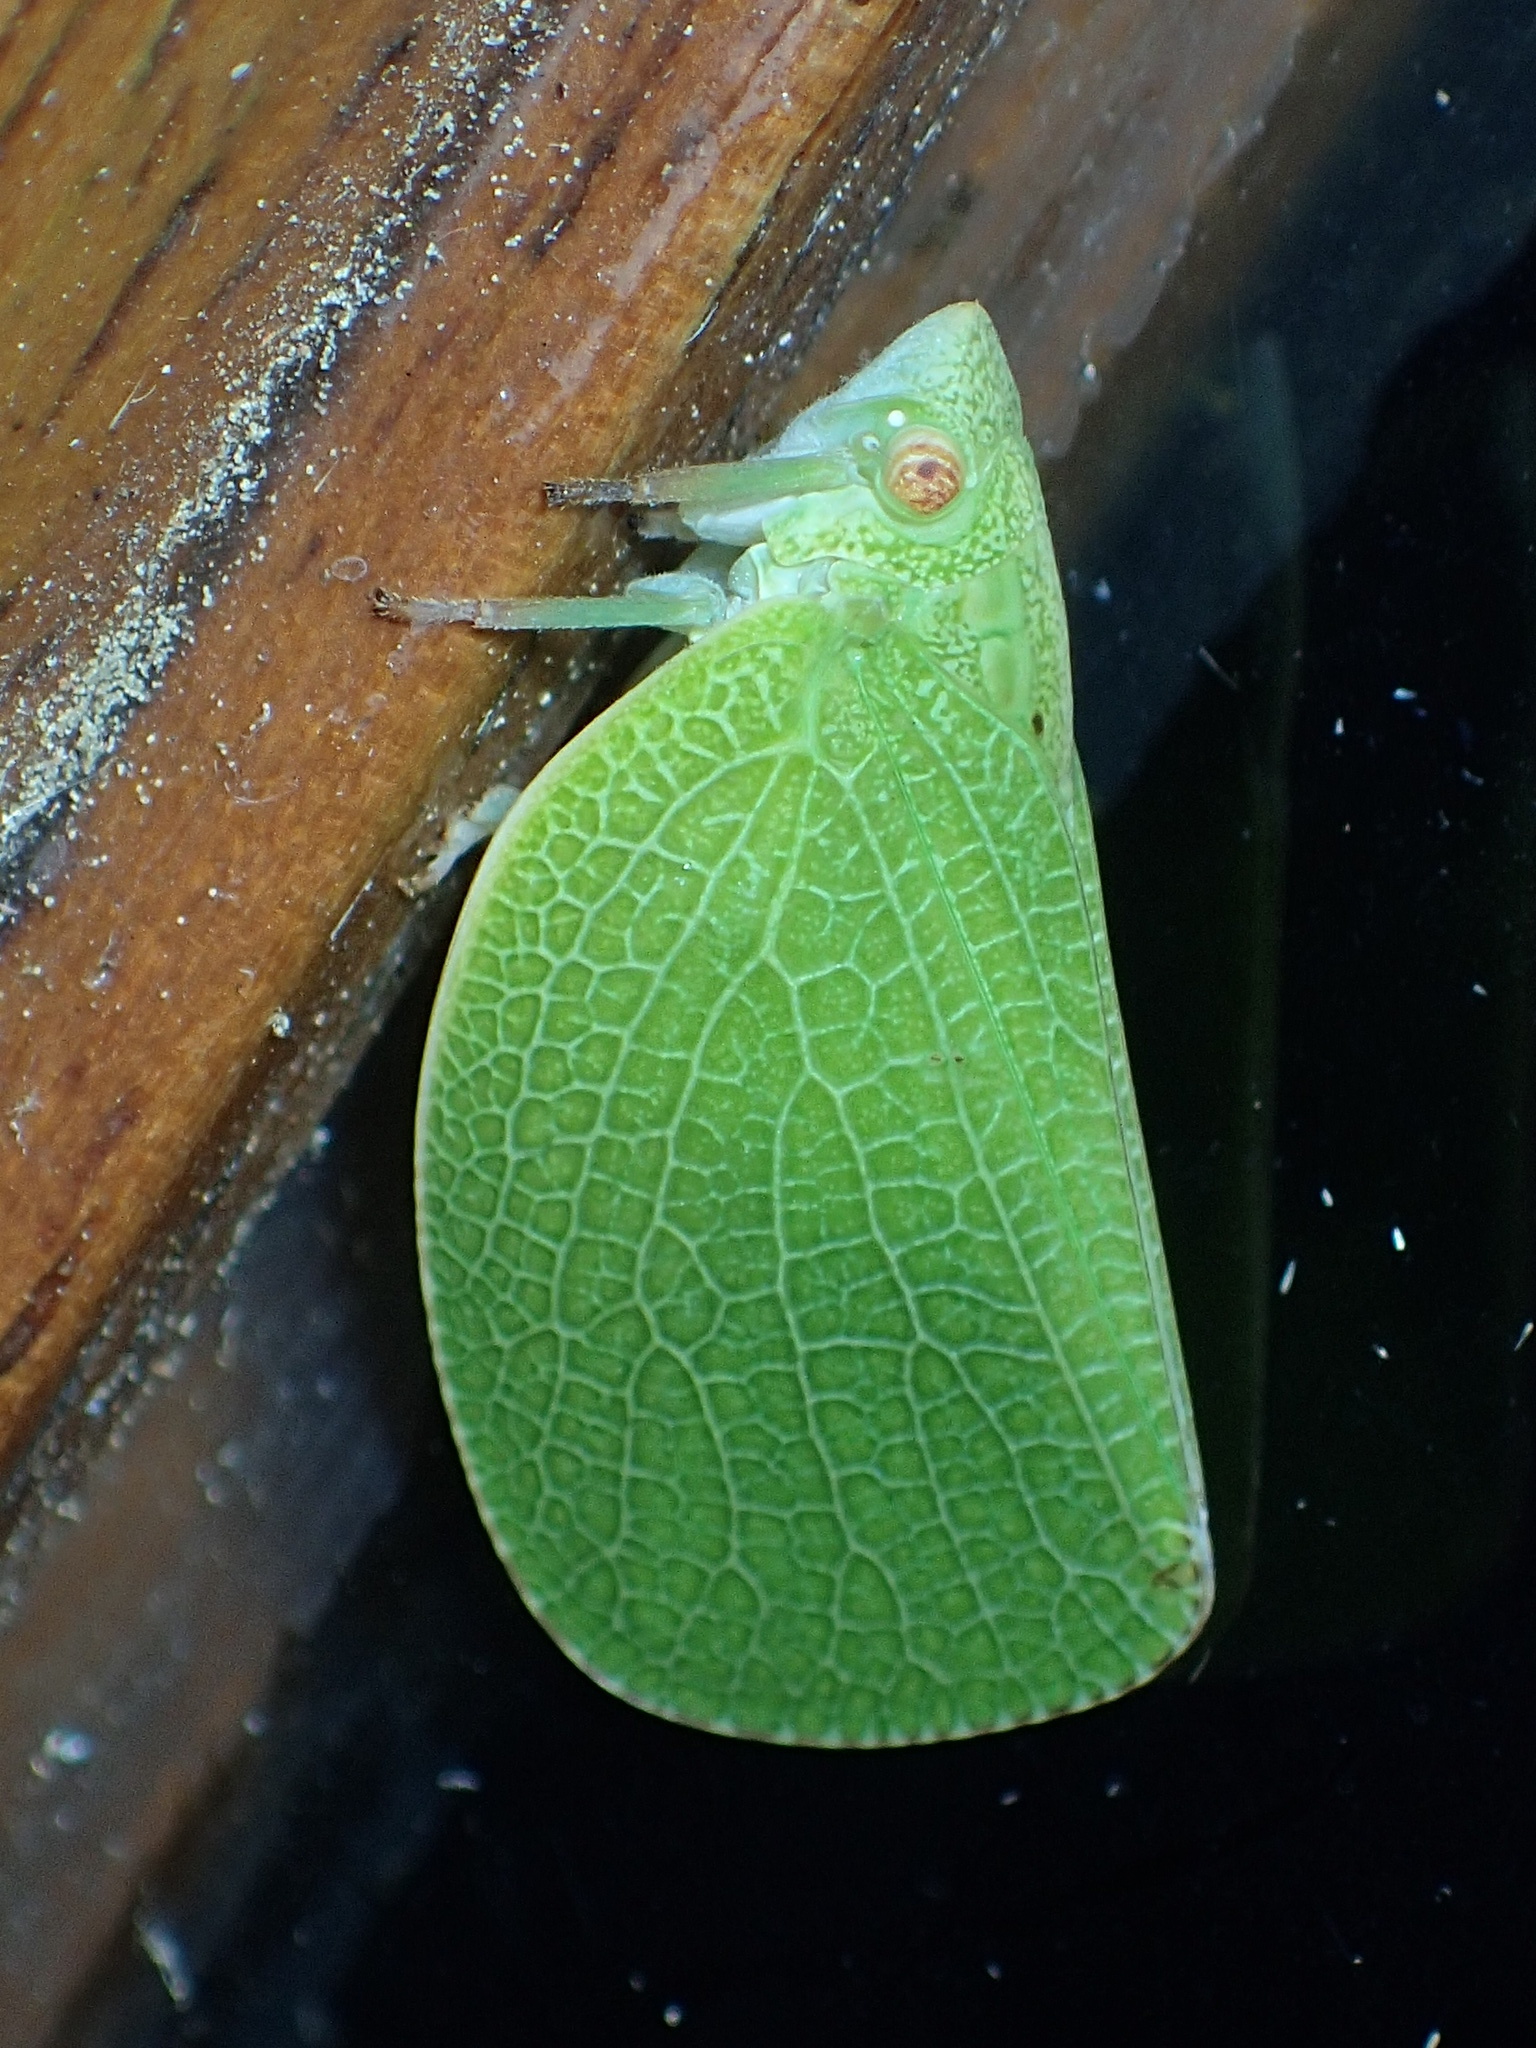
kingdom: Animalia
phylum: Arthropoda
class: Insecta
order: Hemiptera
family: Acanaloniidae
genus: Acanalonia
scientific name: Acanalonia conica
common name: Green cone-headed planthopper
